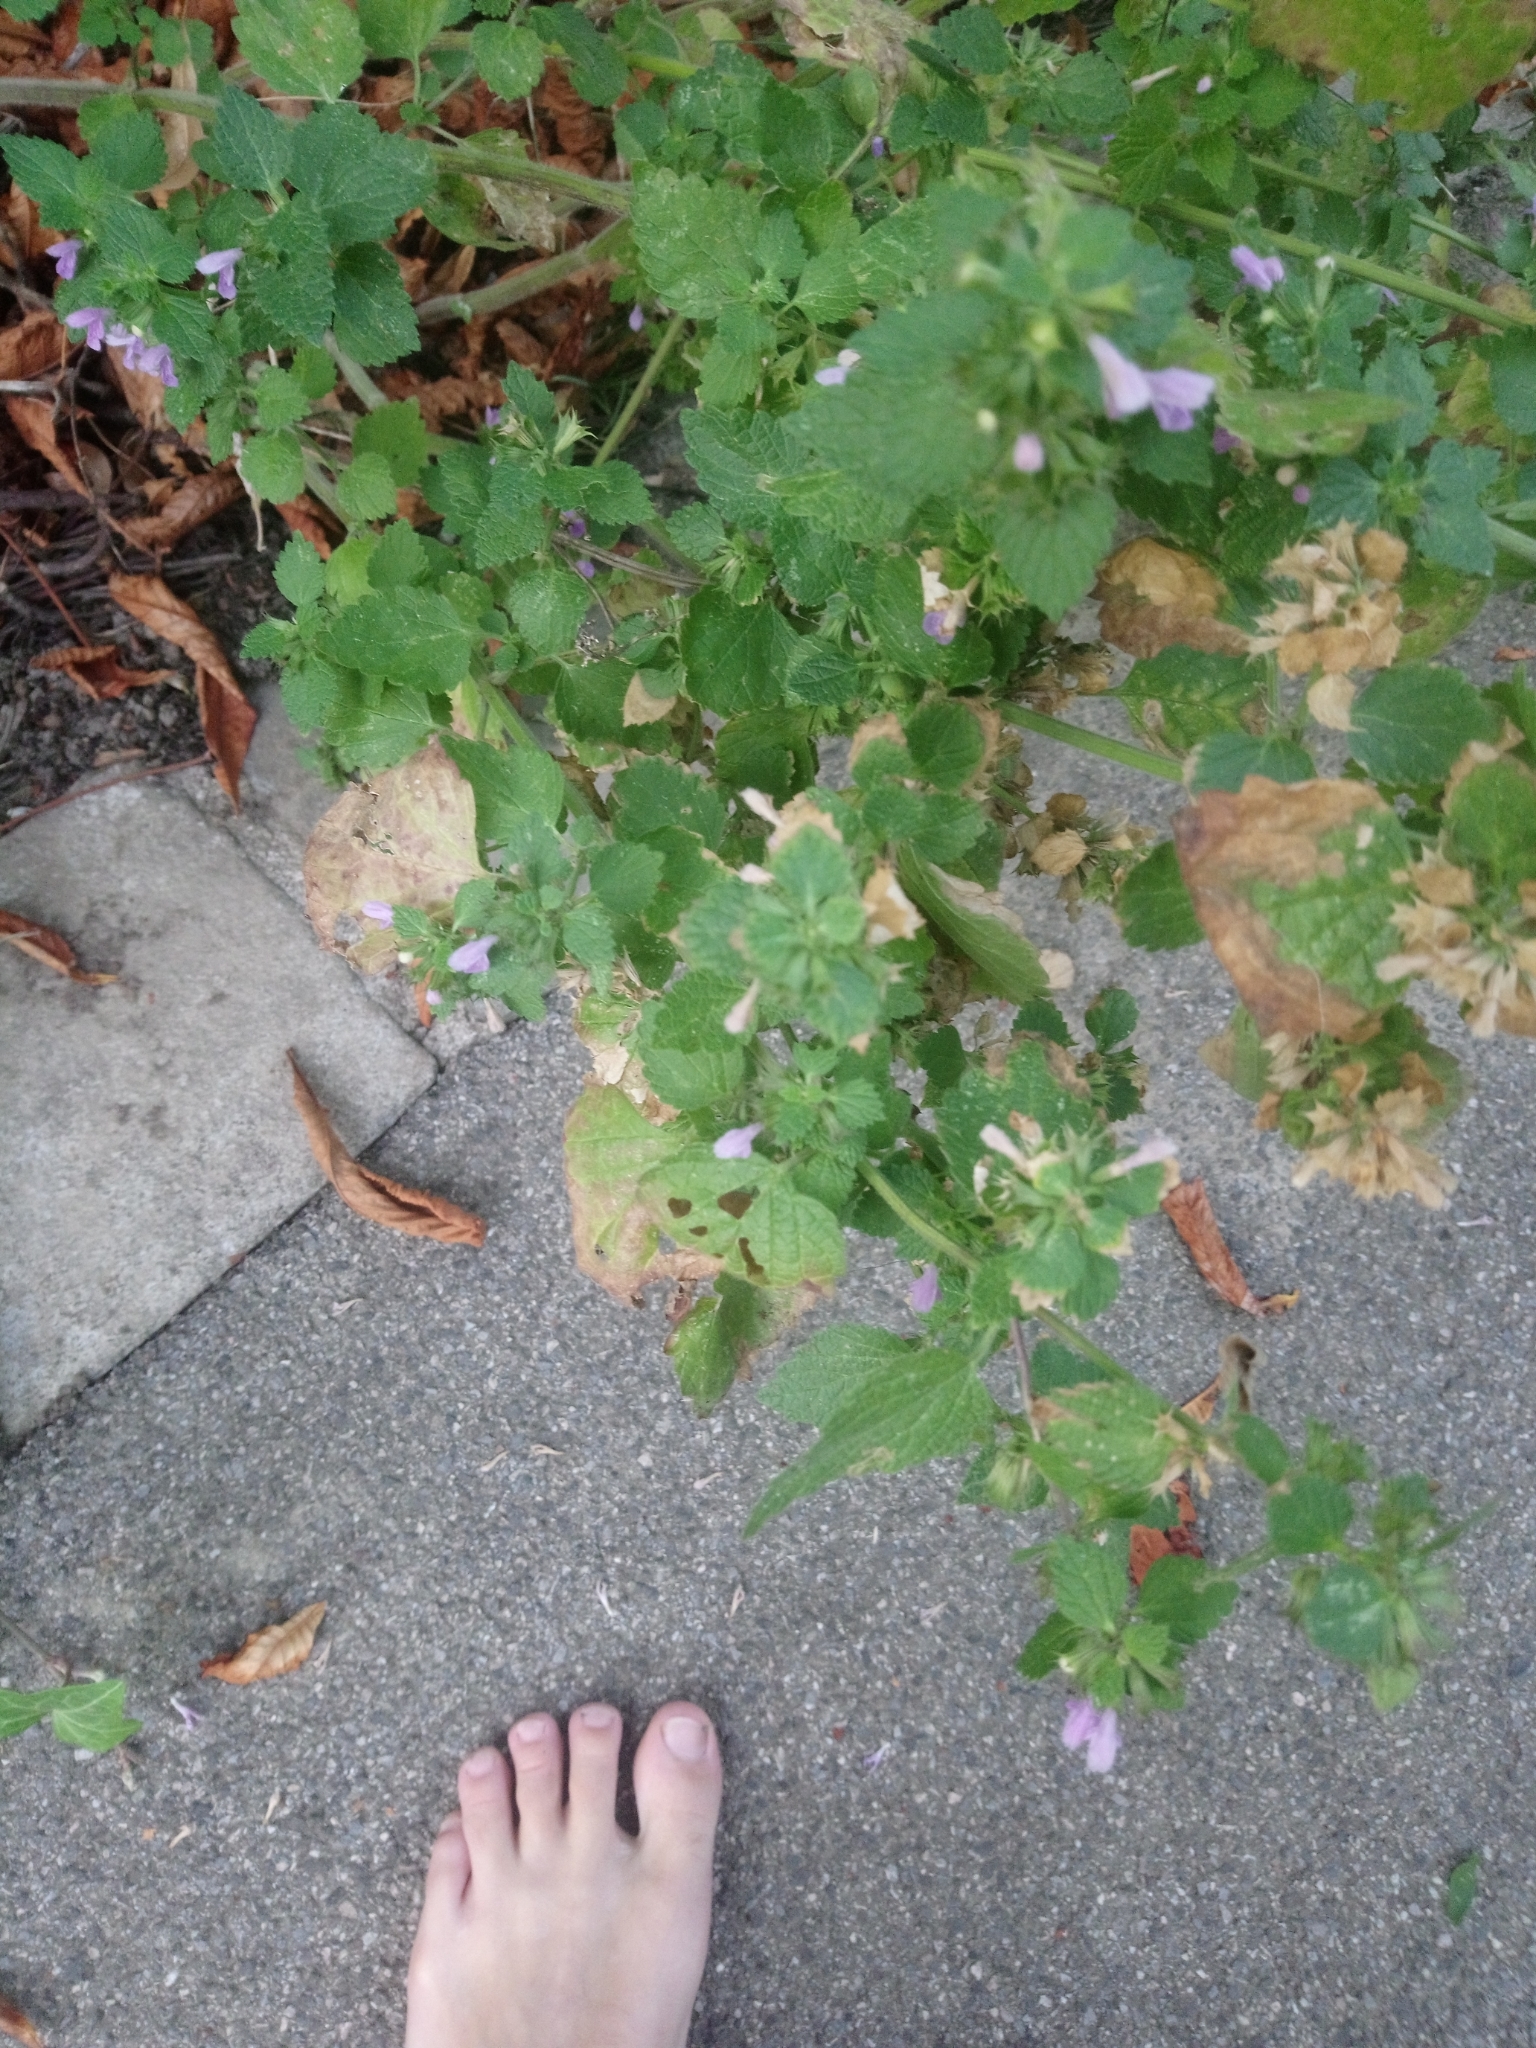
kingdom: Plantae
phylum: Tracheophyta
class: Magnoliopsida
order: Lamiales
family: Lamiaceae
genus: Ballota
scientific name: Ballota nigra
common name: Black horehound
